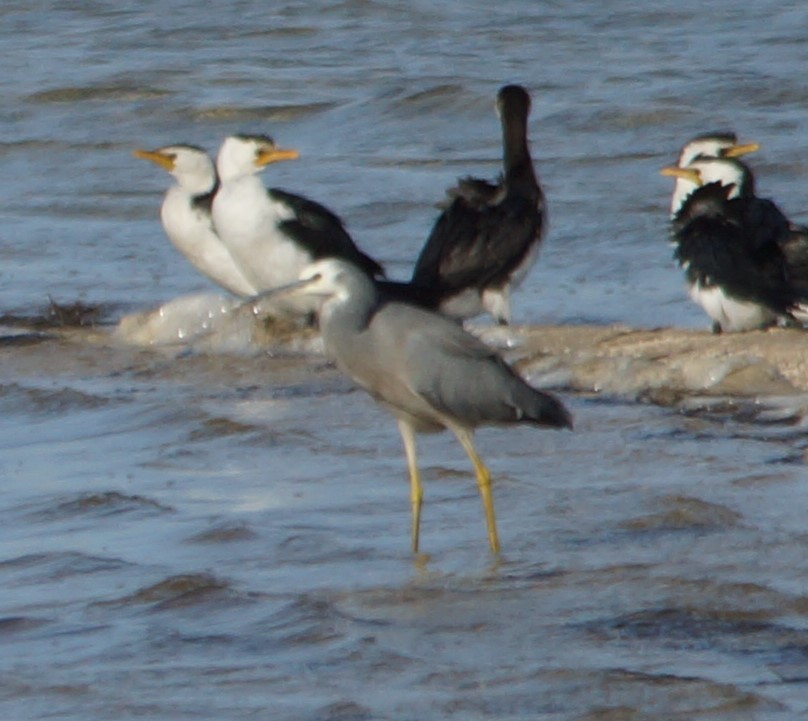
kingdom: Animalia
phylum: Chordata
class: Aves
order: Pelecaniformes
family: Ardeidae
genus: Egretta
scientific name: Egretta novaehollandiae
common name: White-faced heron
